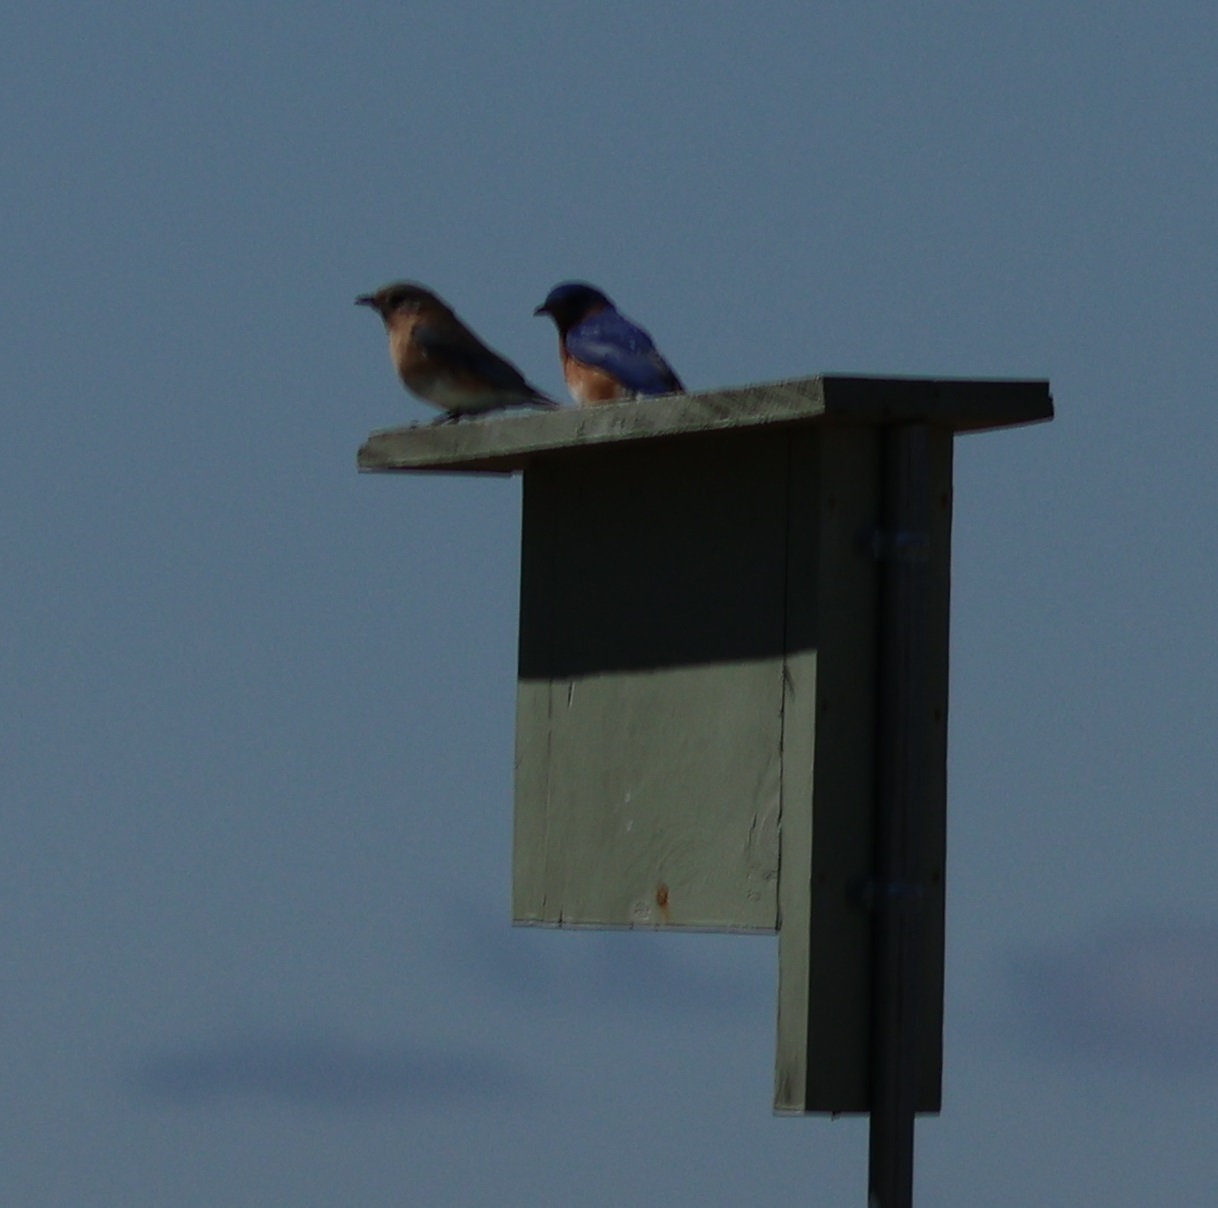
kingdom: Animalia
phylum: Chordata
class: Aves
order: Passeriformes
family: Turdidae
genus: Sialia
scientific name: Sialia sialis
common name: Eastern bluebird
